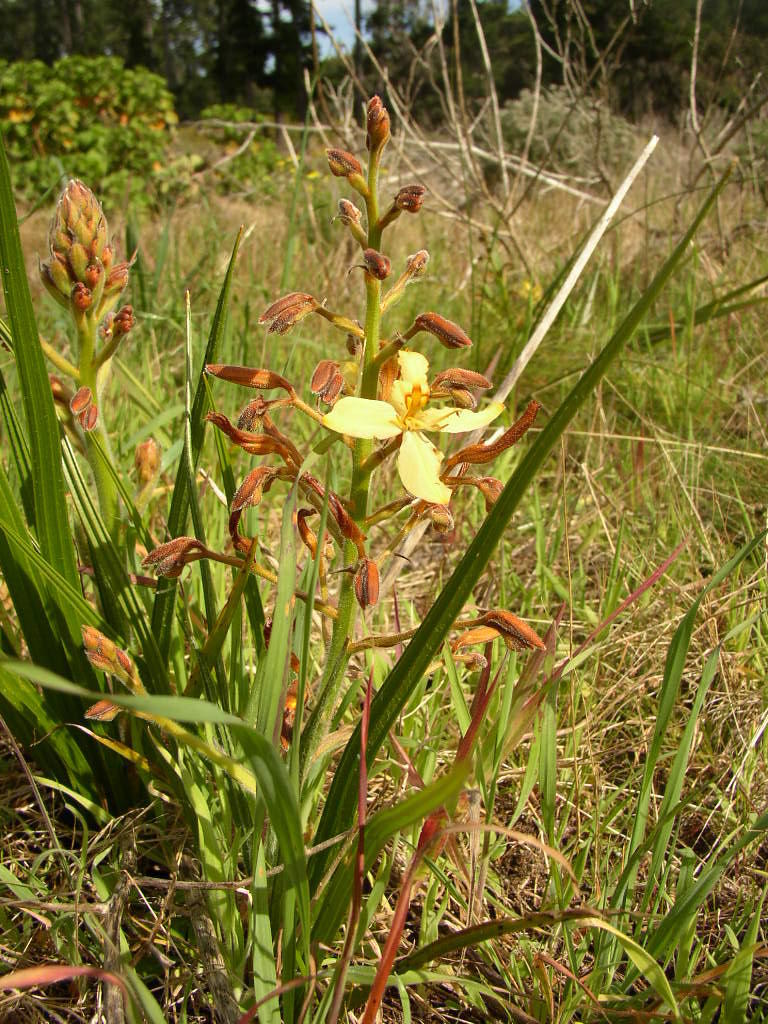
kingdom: Plantae
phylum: Tracheophyta
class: Liliopsida
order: Commelinales
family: Haemodoraceae
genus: Wachendorfia
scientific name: Wachendorfia paniculata
